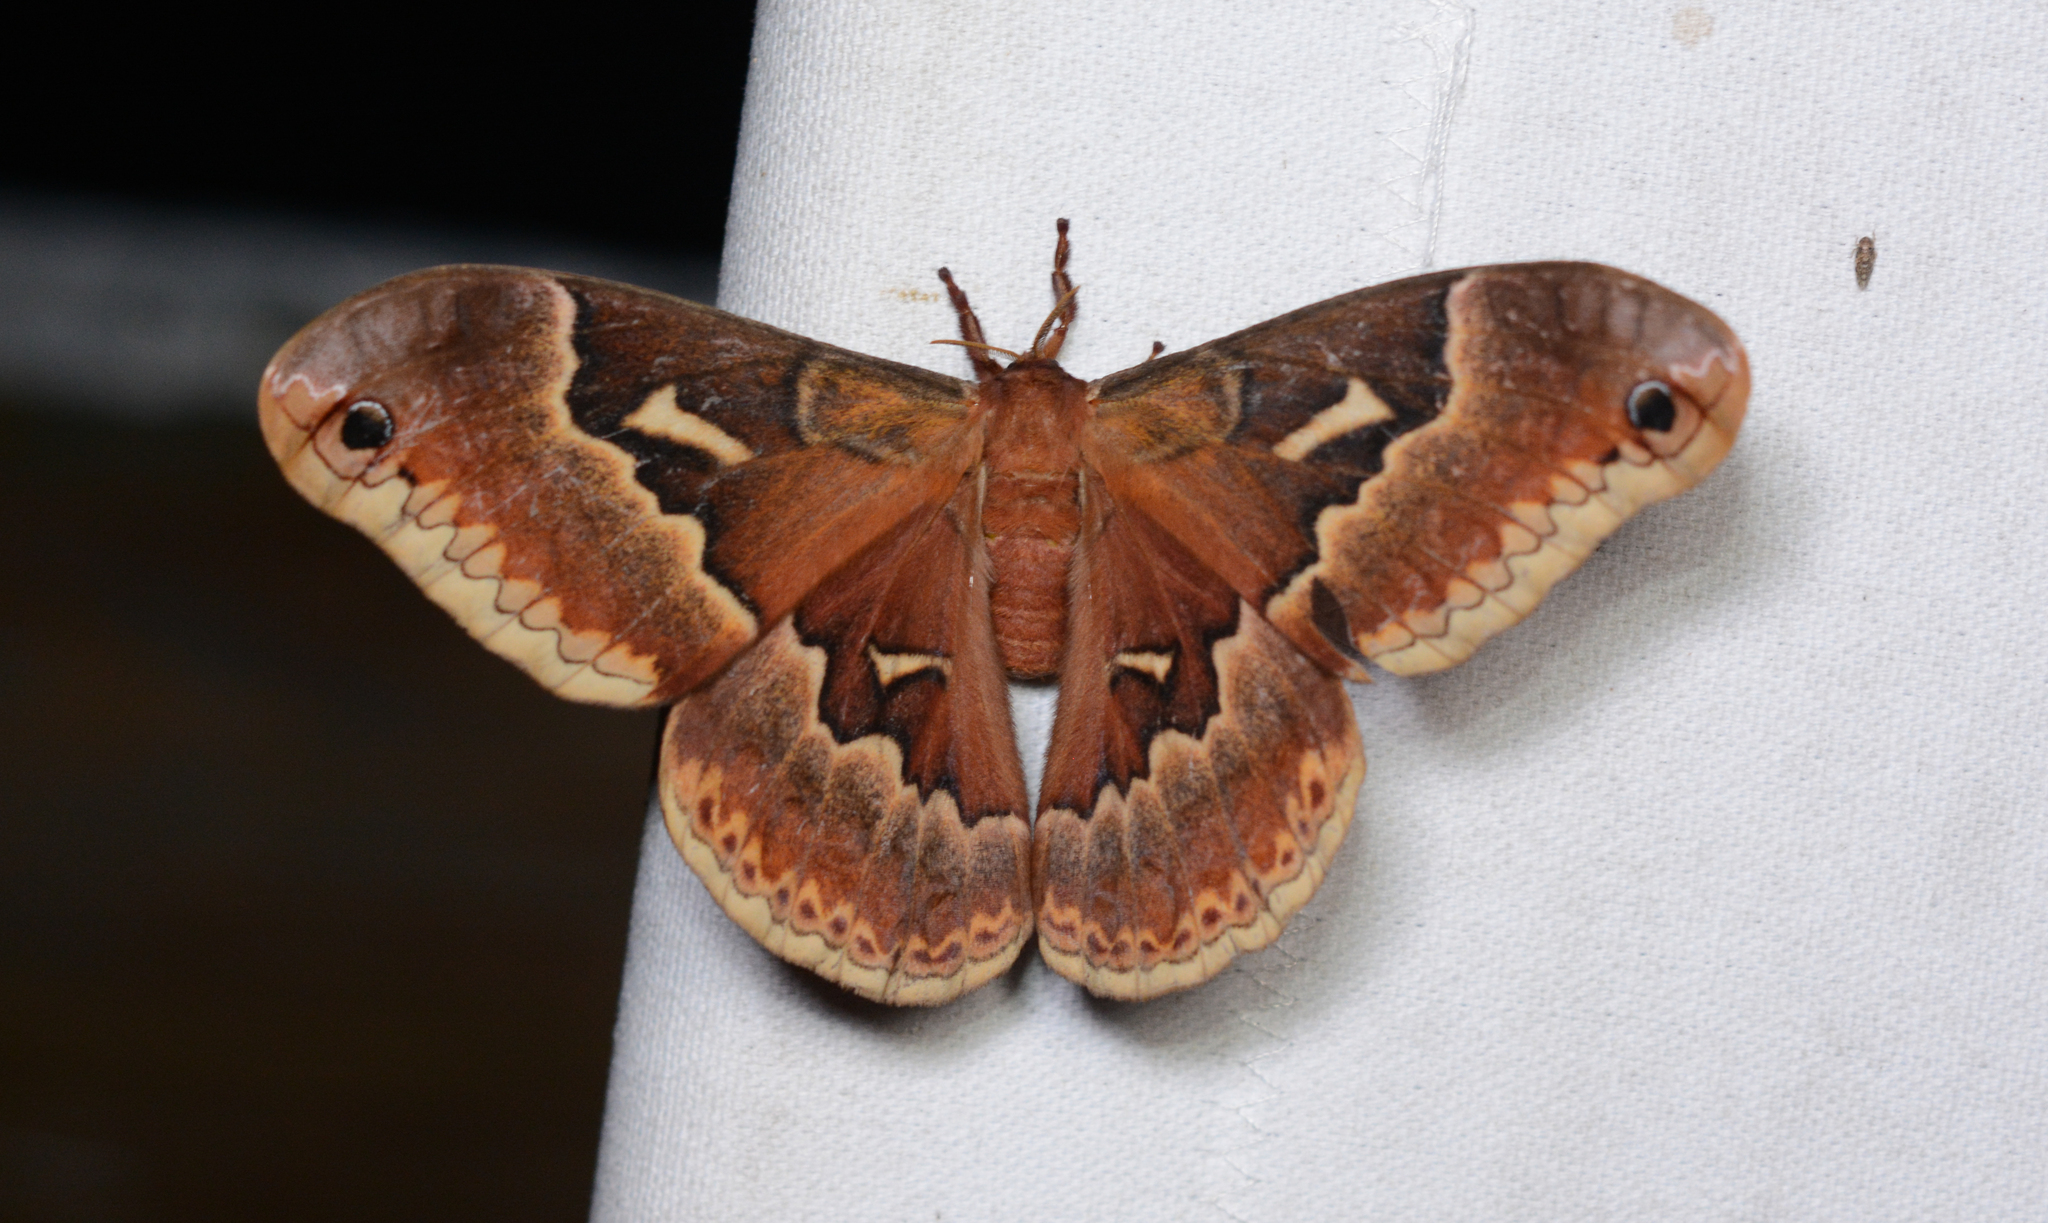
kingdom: Animalia
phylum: Arthropoda
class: Insecta
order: Lepidoptera
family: Saturniidae
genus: Callosamia
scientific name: Callosamia angulifera
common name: Tulip tree silkmoth
